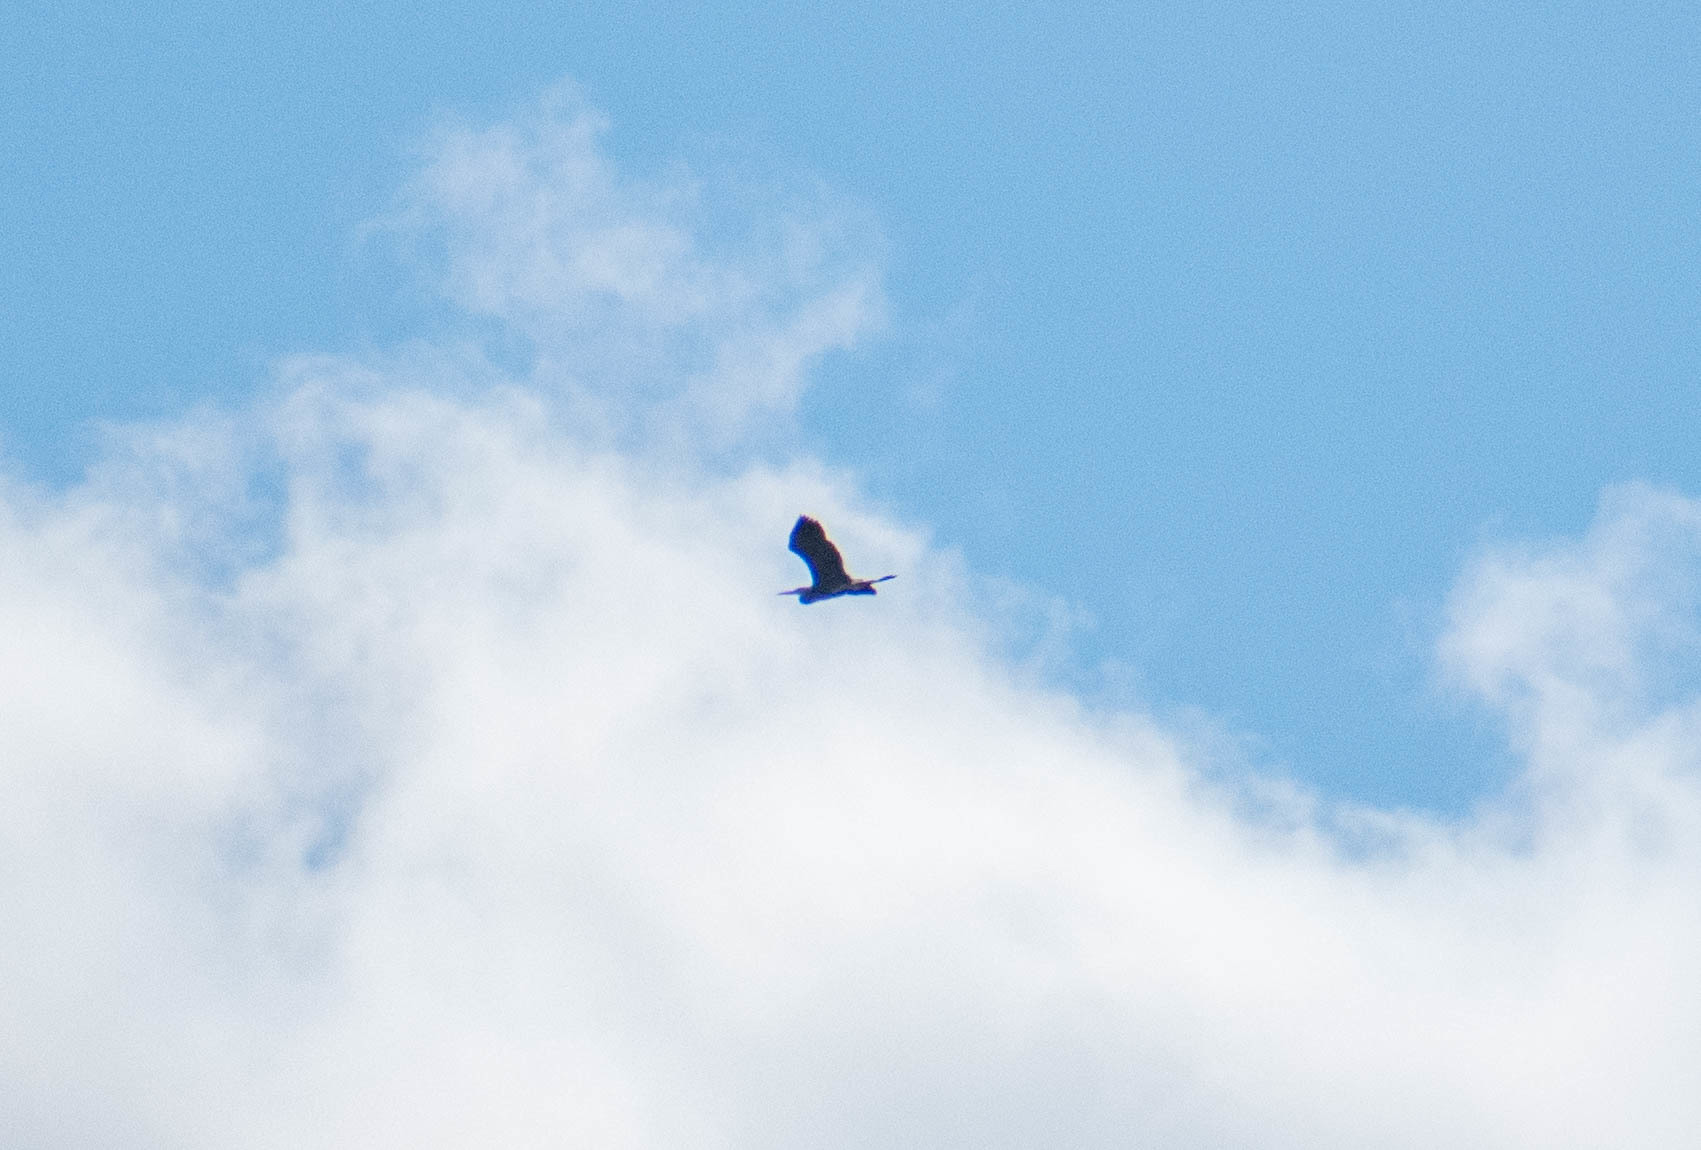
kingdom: Animalia
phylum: Chordata
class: Aves
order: Pelecaniformes
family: Ardeidae
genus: Ardea
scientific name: Ardea cinerea
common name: Grey heron
